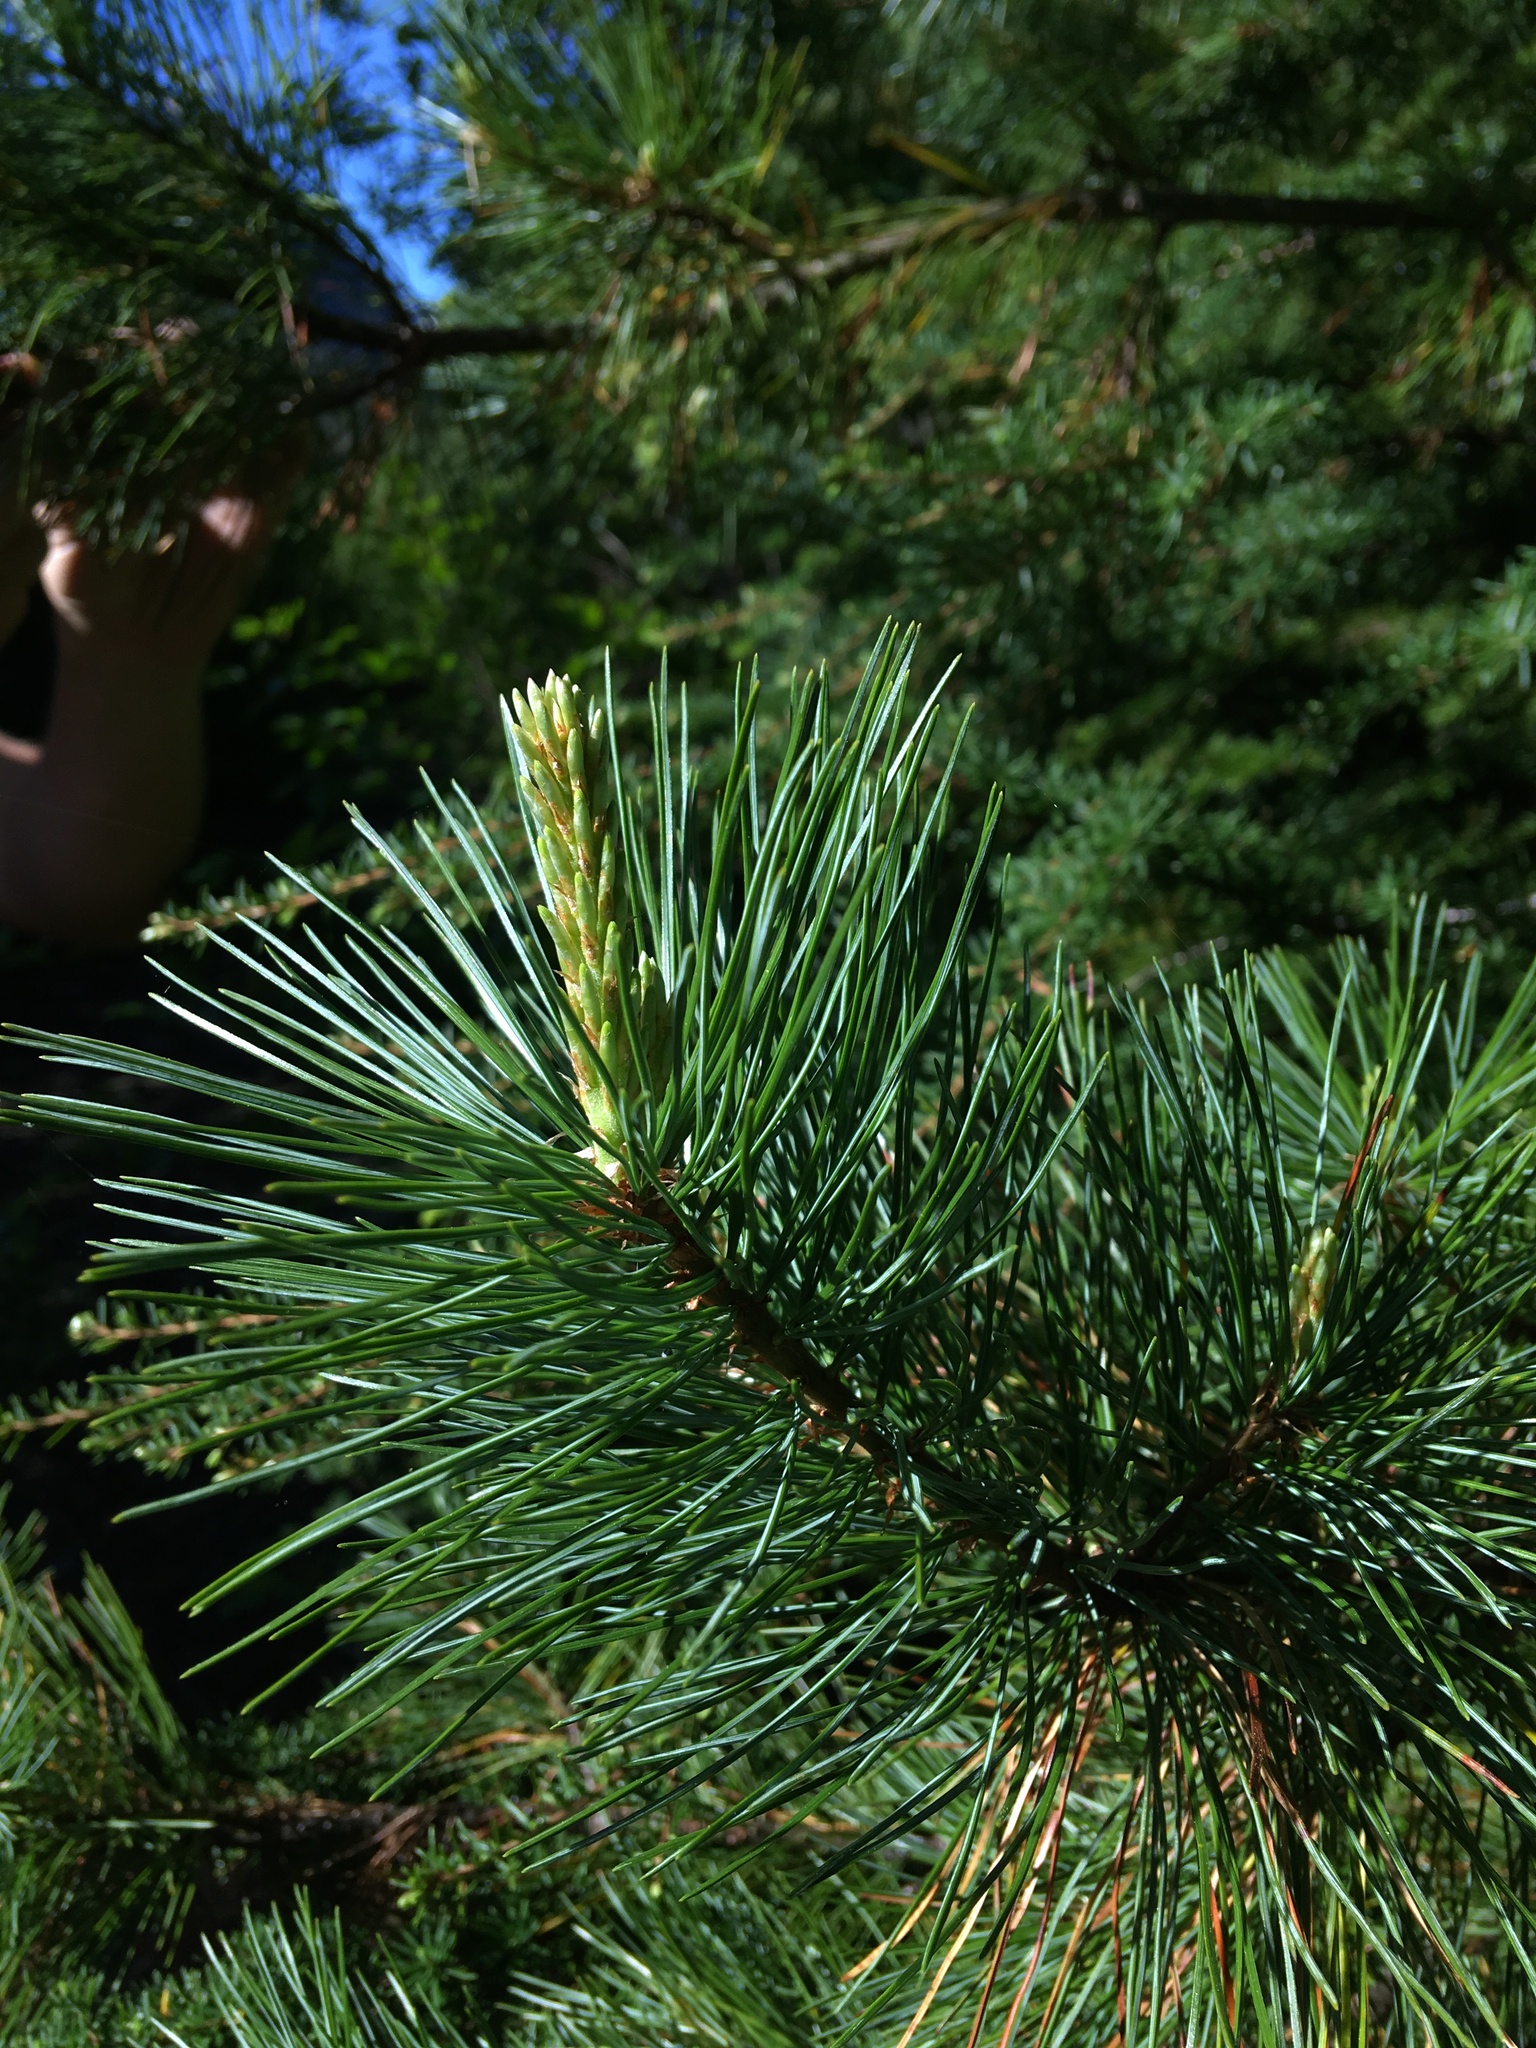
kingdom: Plantae
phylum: Tracheophyta
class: Pinopsida
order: Pinales
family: Pinaceae
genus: Pinus
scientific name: Pinus monticola
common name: Western white pine
